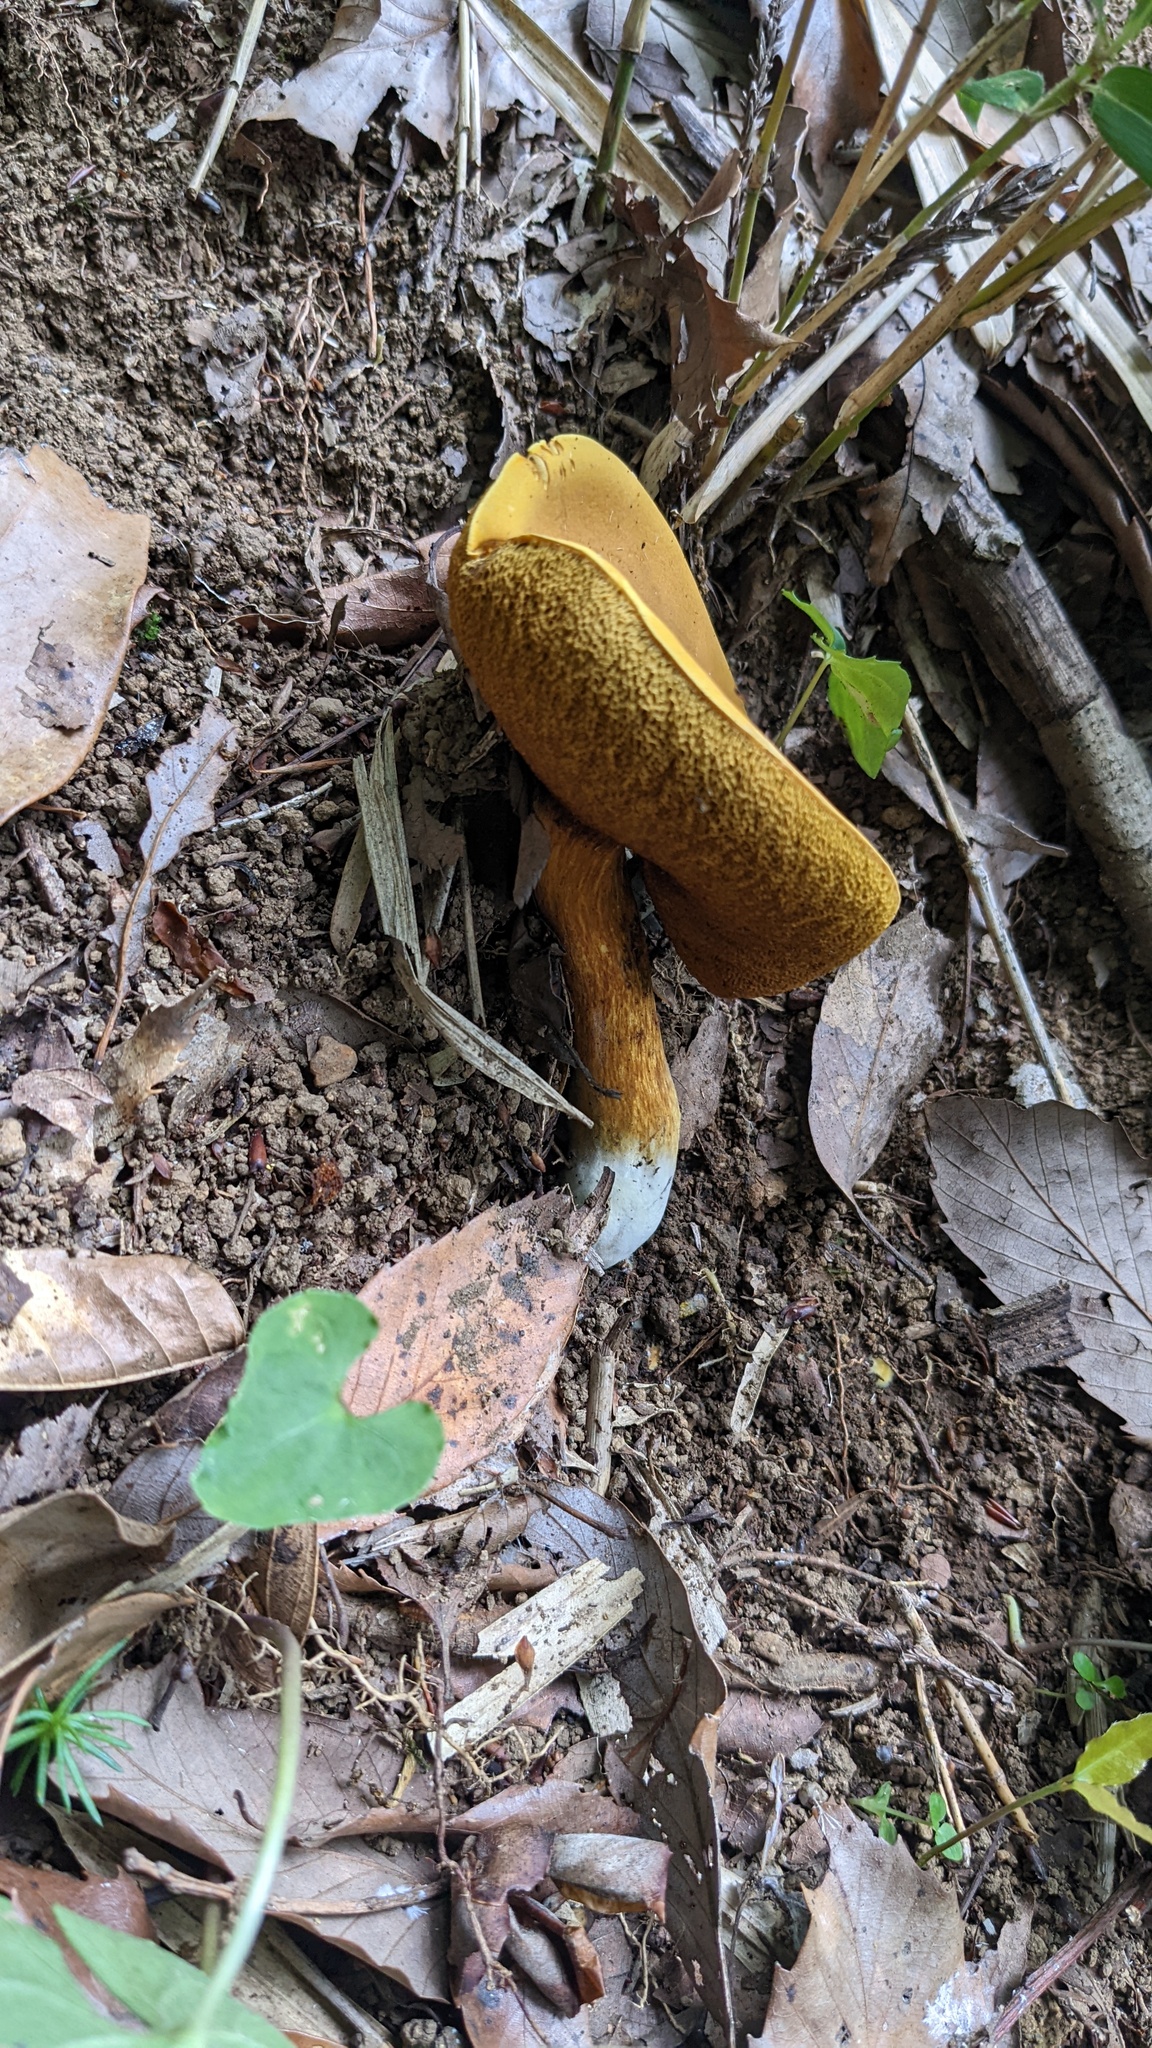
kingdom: Fungi
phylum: Basidiomycota
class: Agaricomycetes
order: Boletales
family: Boletaceae
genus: Boletus
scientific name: Boletus aurantiosplendens
